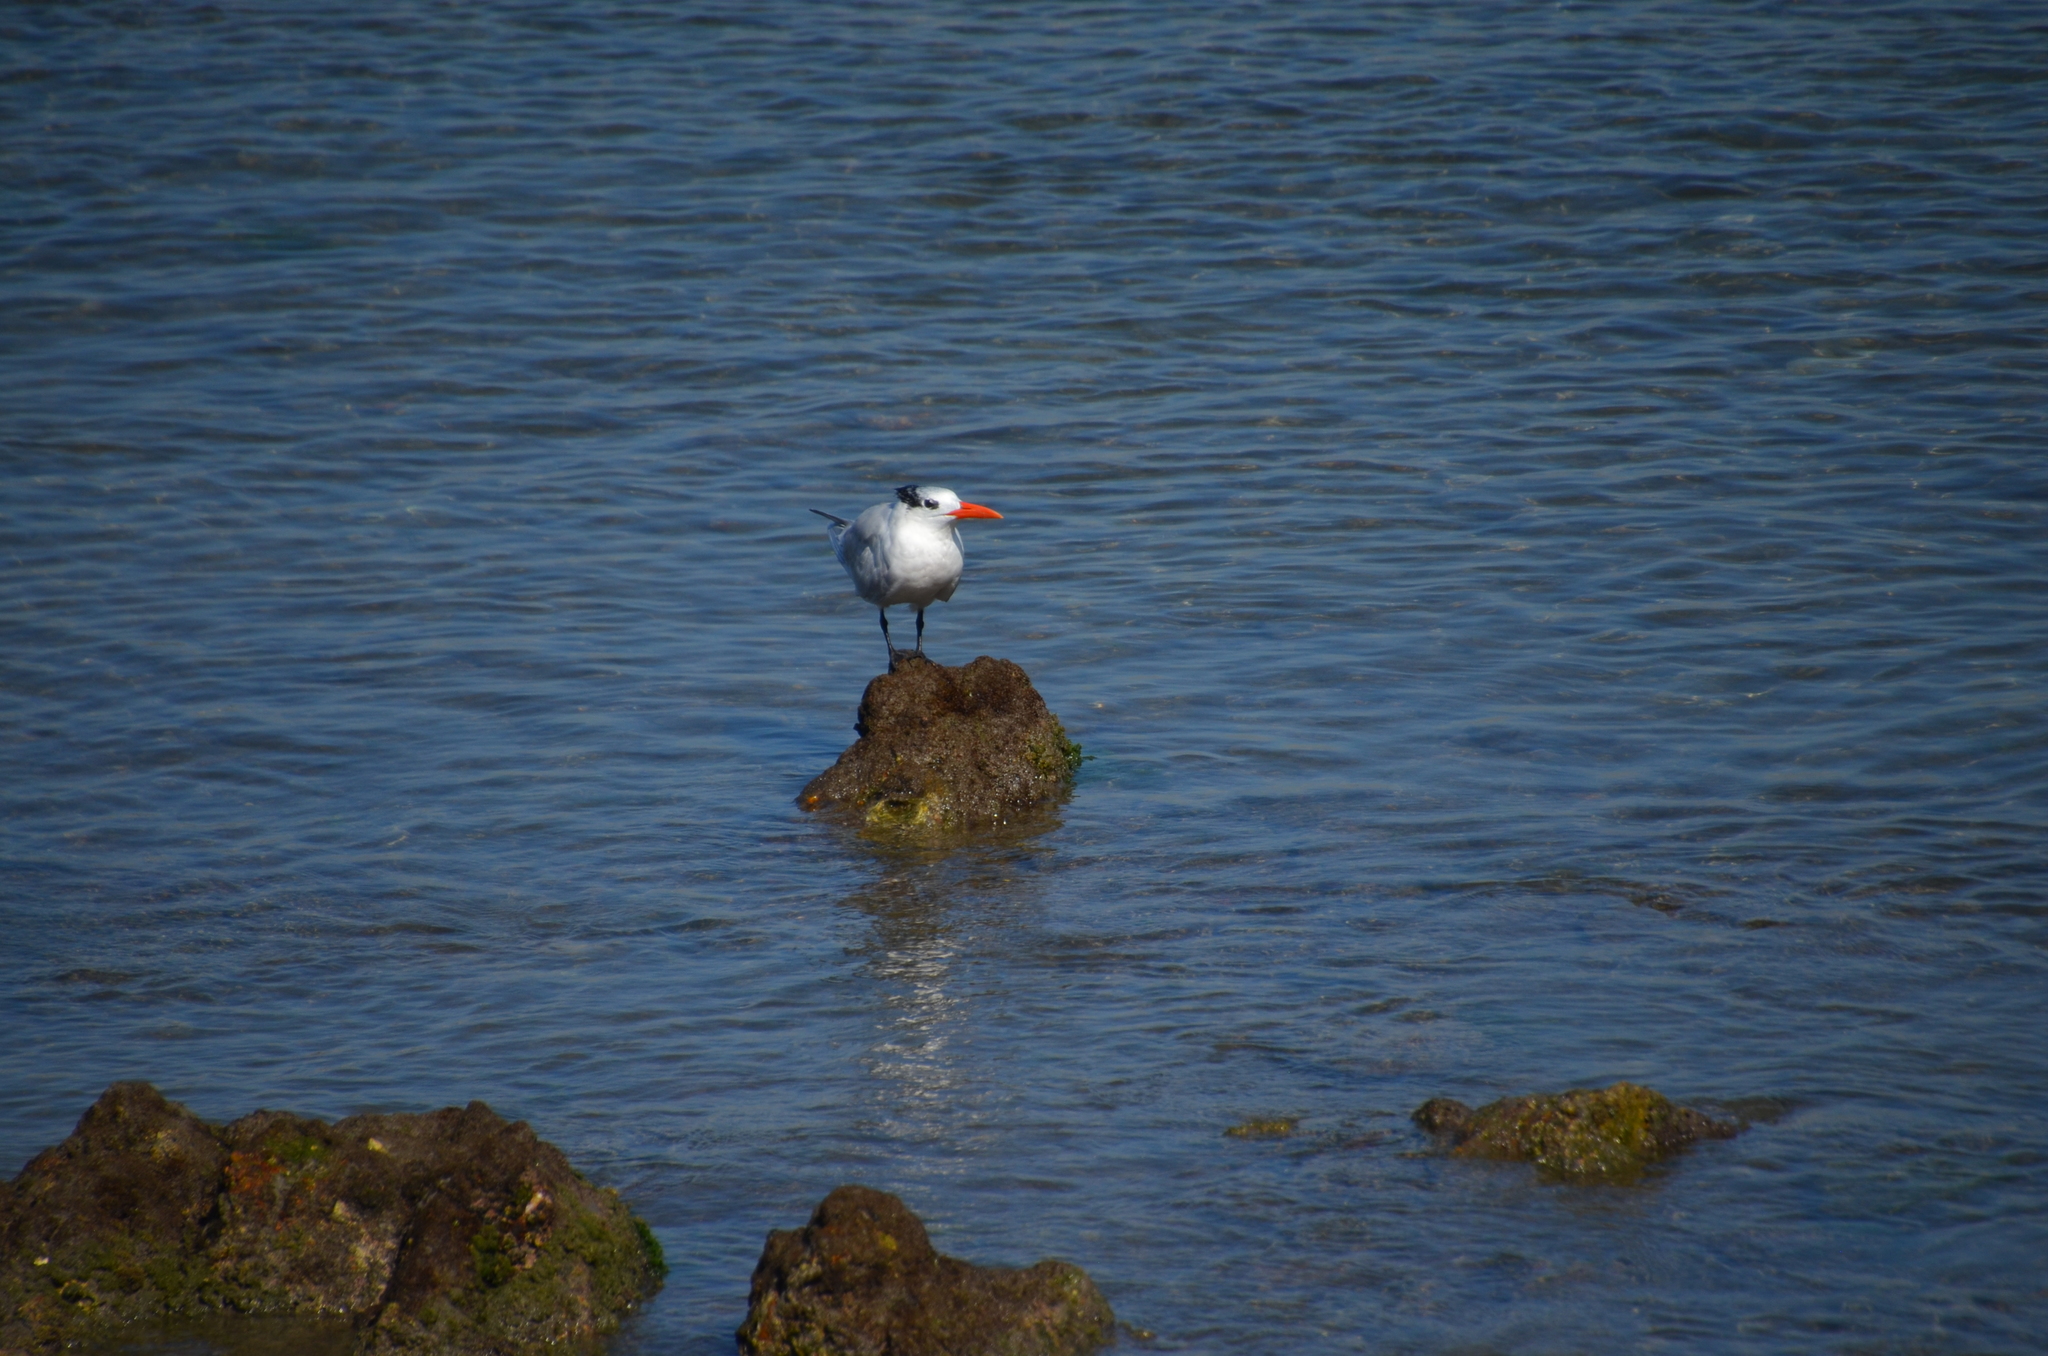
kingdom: Animalia
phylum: Chordata
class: Aves
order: Charadriiformes
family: Laridae
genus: Thalasseus
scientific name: Thalasseus maximus
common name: Royal tern
